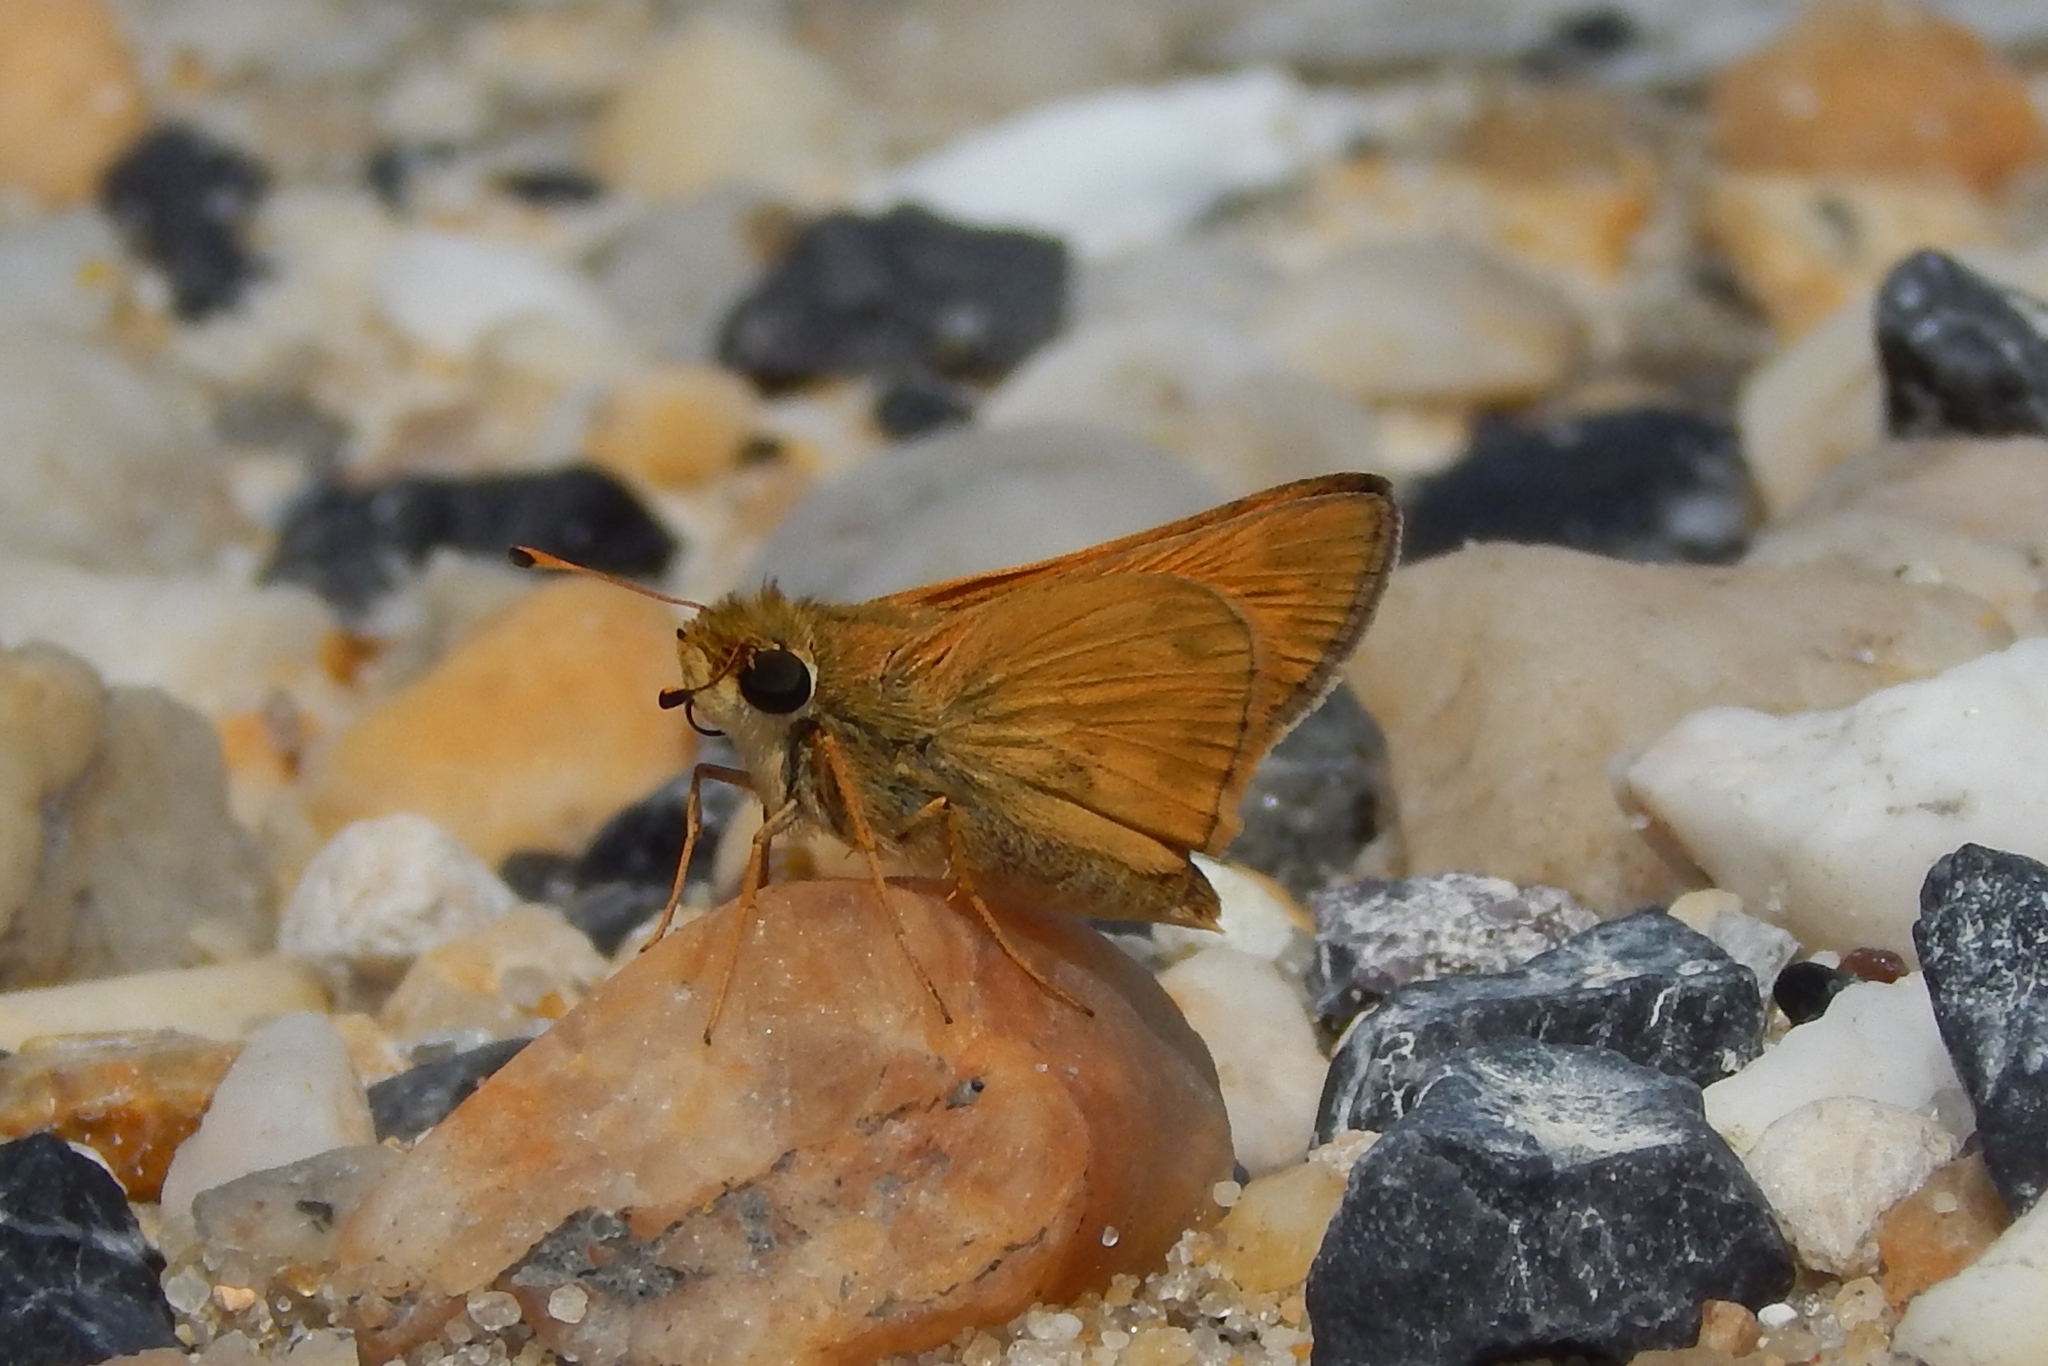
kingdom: Animalia
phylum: Arthropoda
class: Insecta
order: Lepidoptera
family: Hesperiidae
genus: Atalopedes
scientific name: Atalopedes
